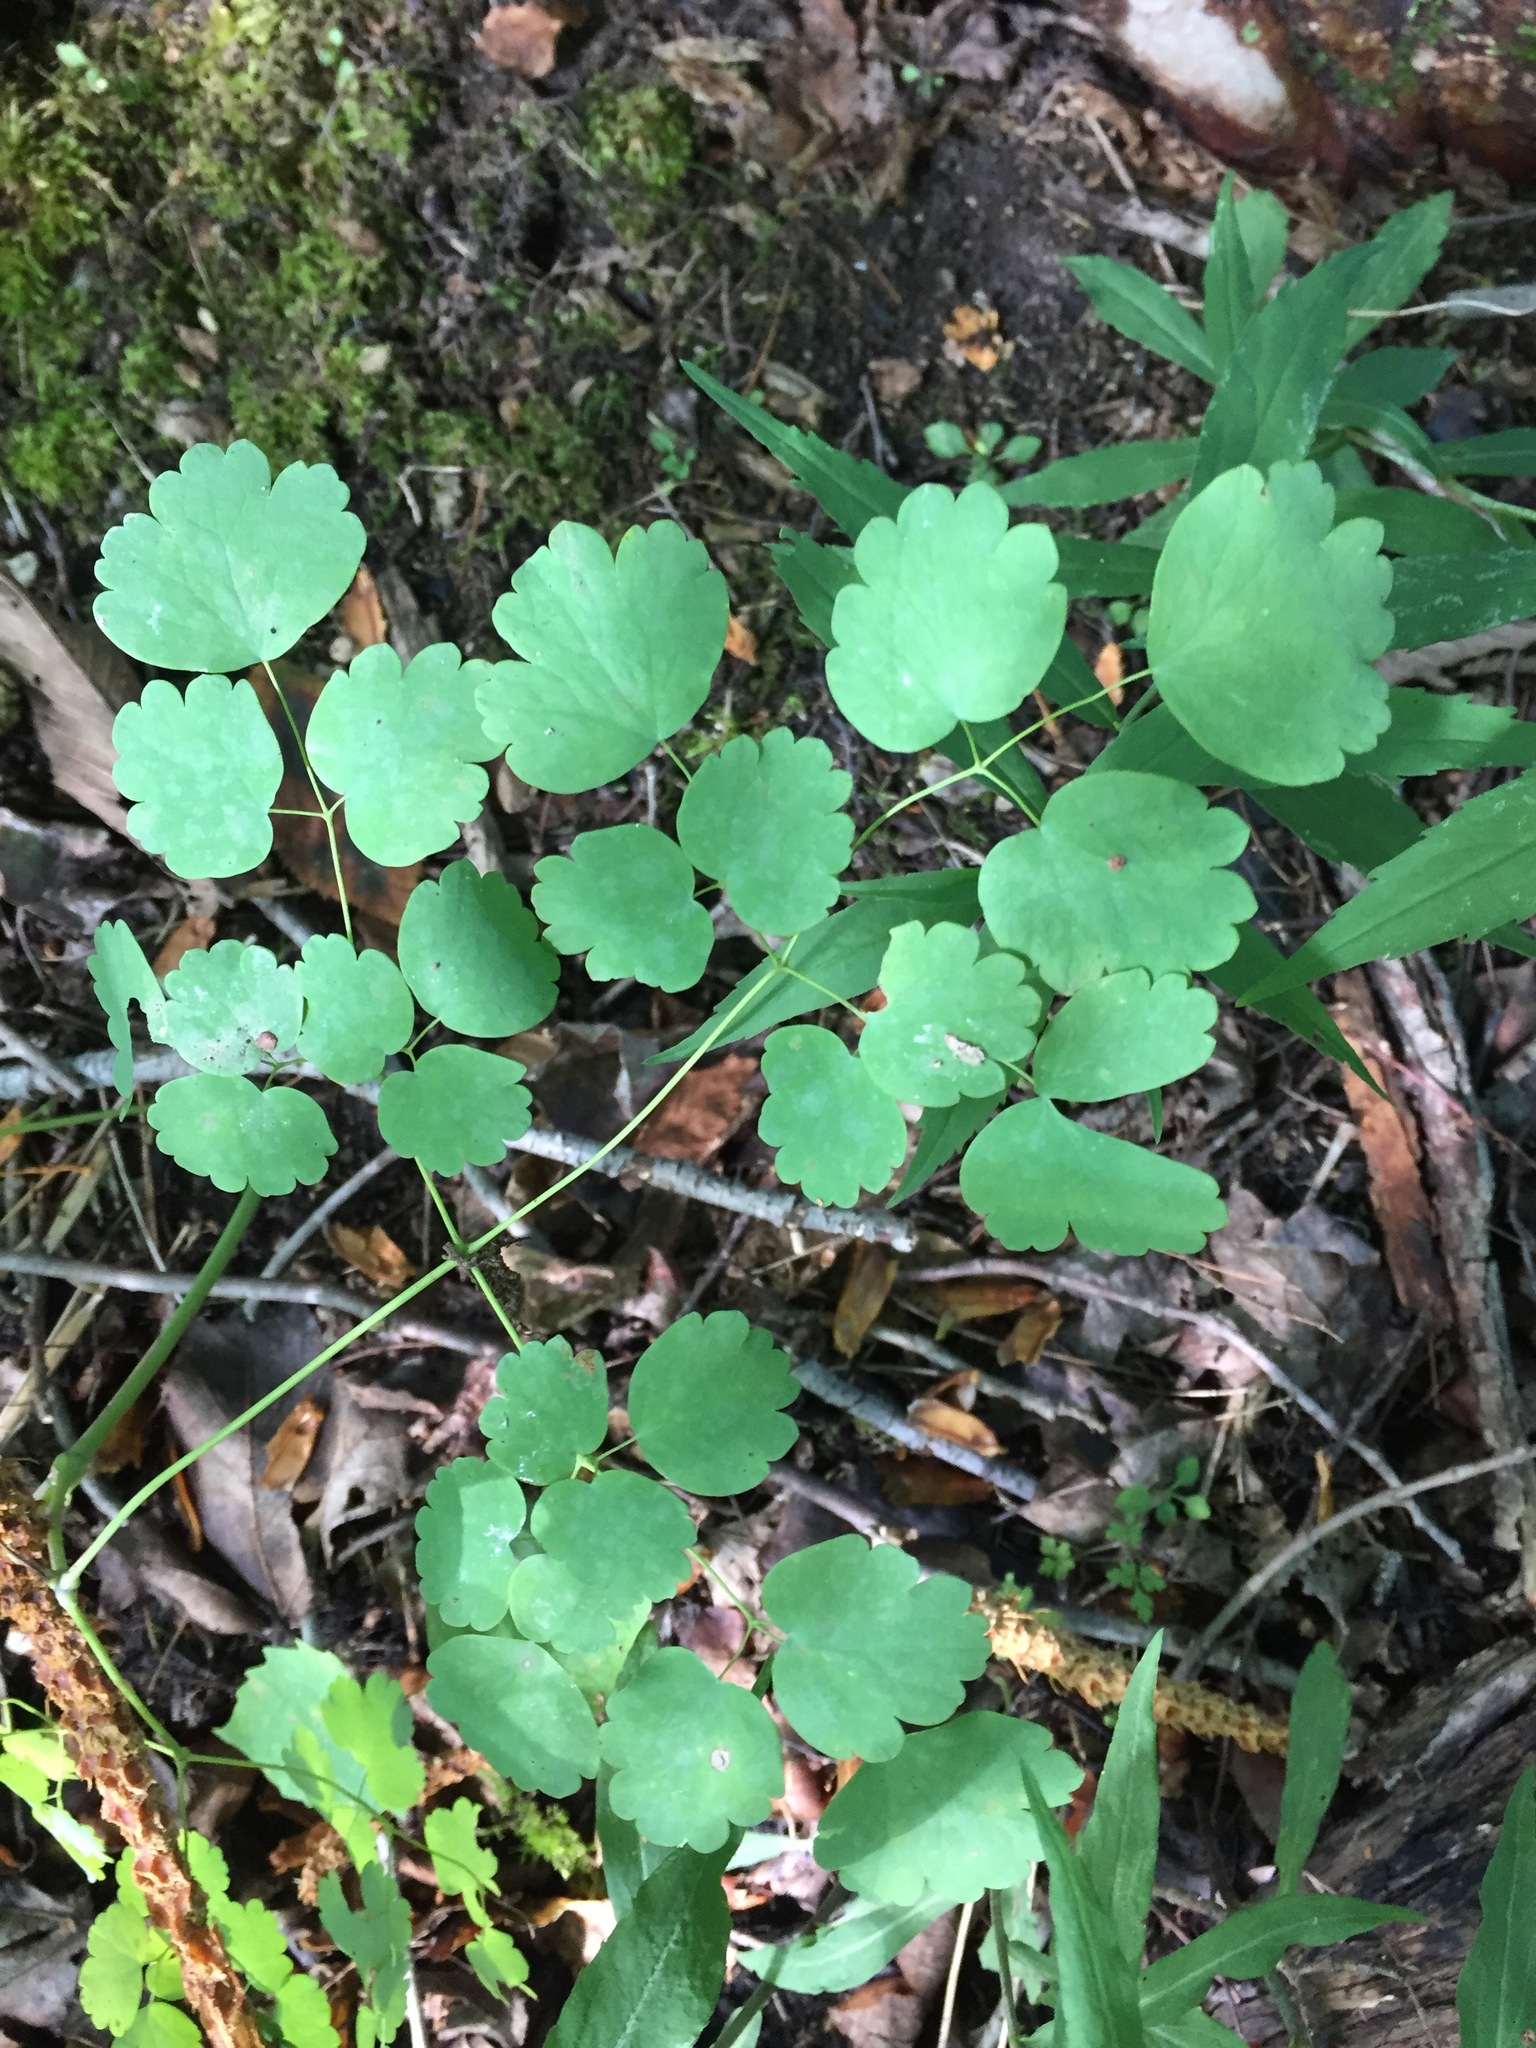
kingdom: Plantae
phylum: Tracheophyta
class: Magnoliopsida
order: Ranunculales
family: Ranunculaceae
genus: Thalictrum
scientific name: Thalictrum dioicum
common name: Early meadow-rue
